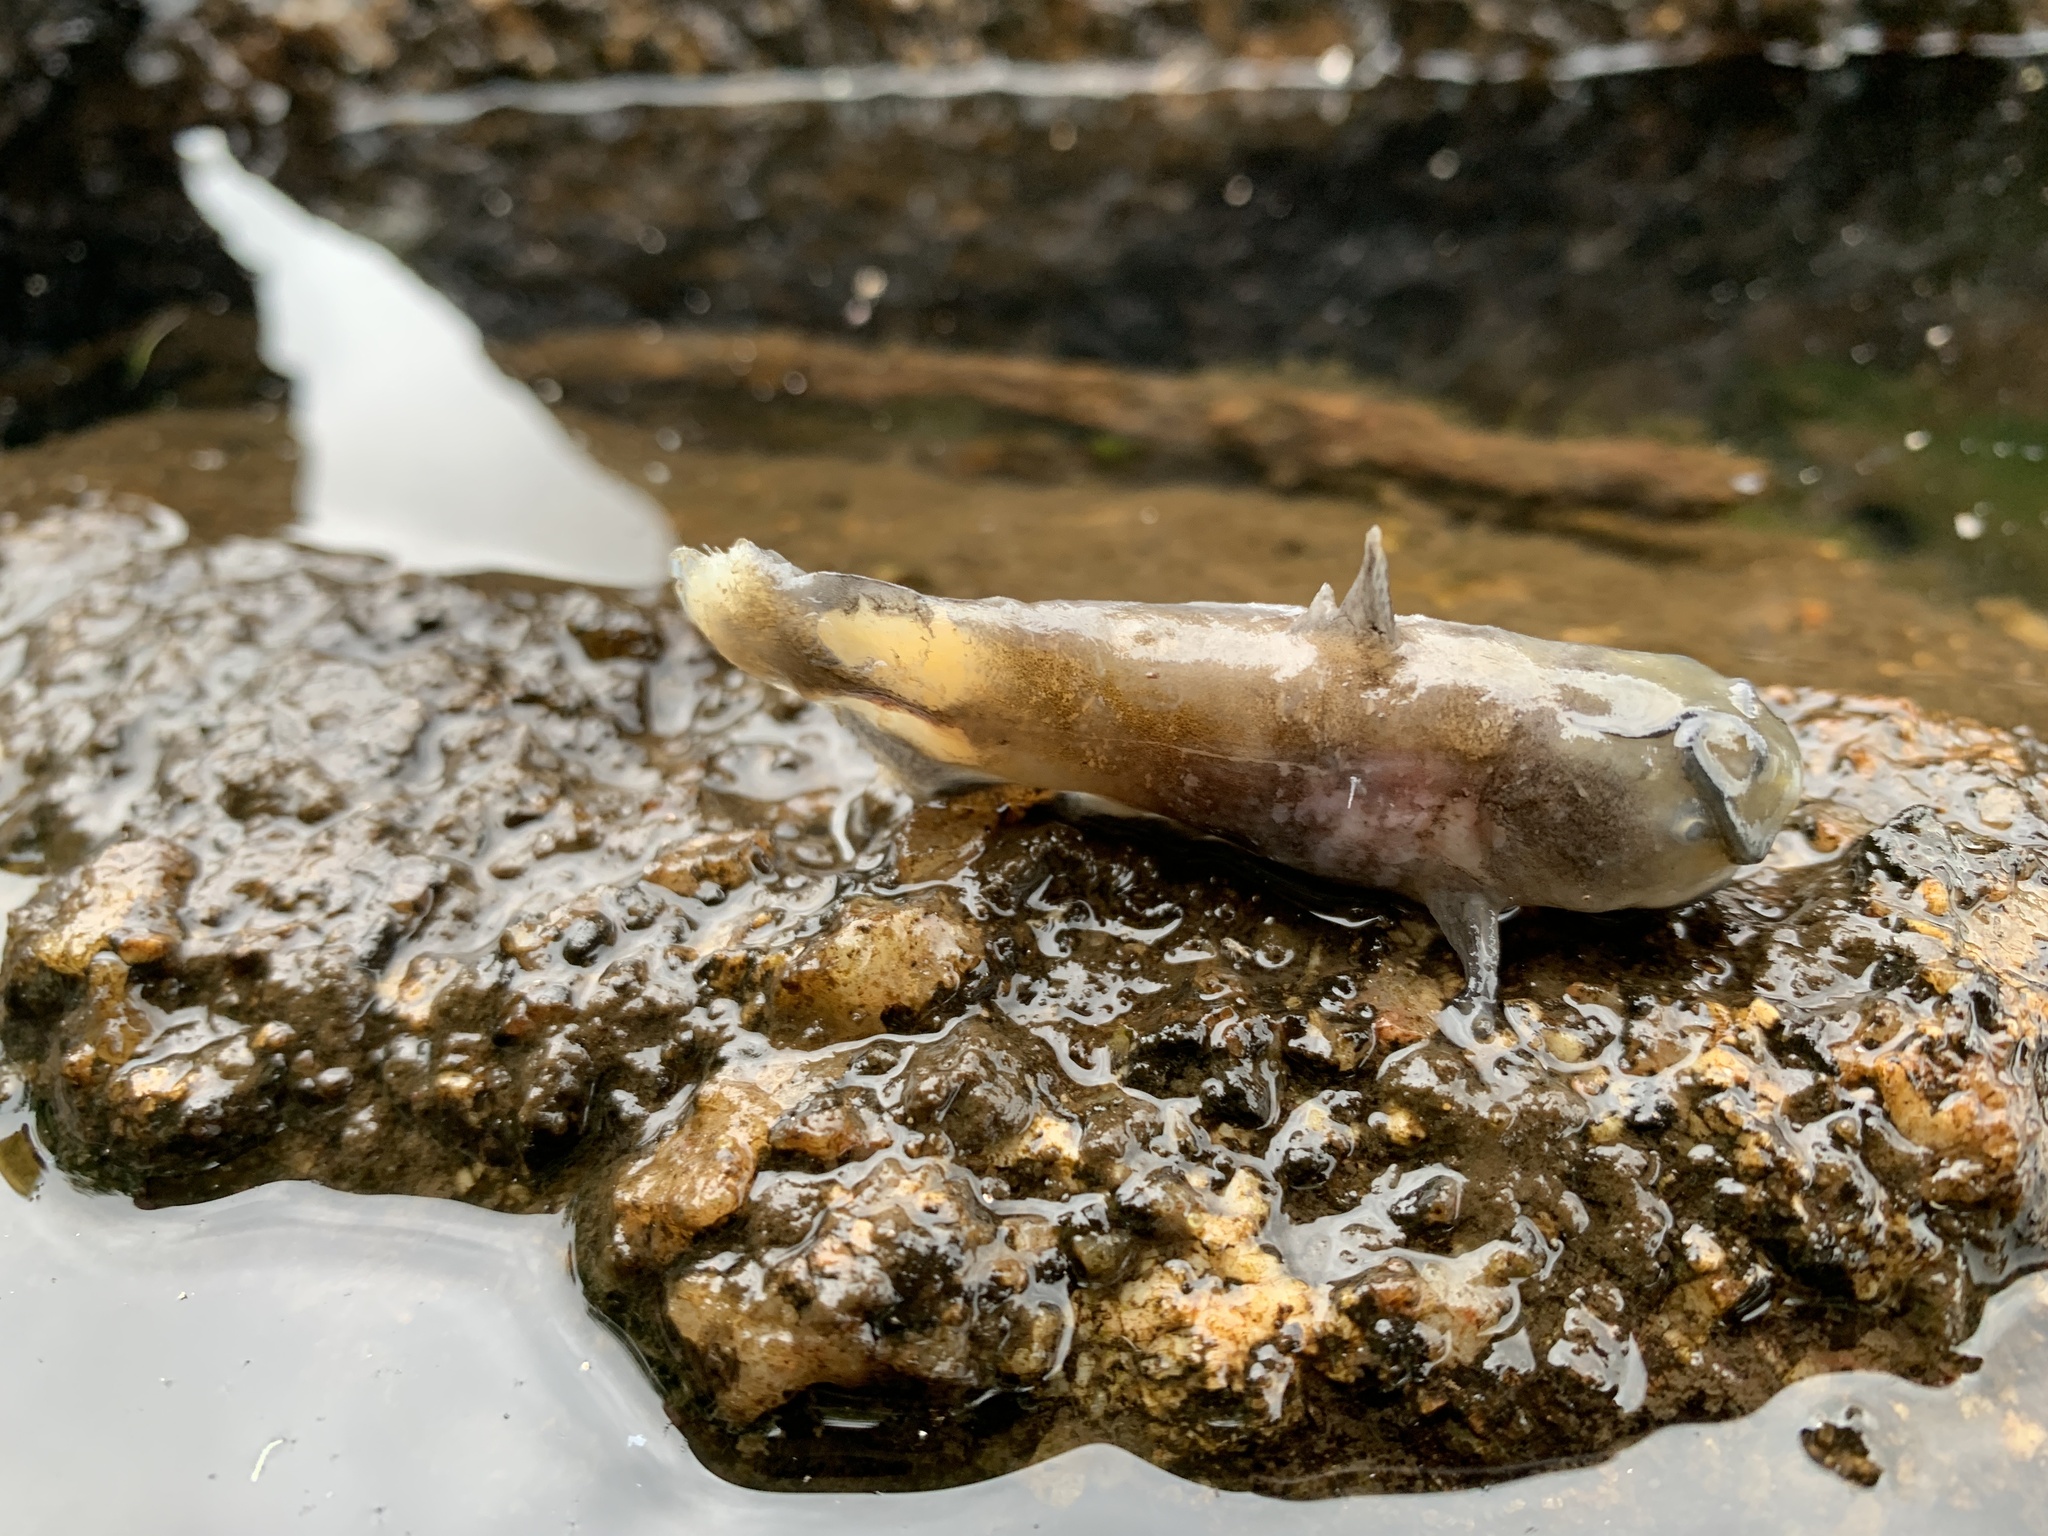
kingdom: Animalia
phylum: Chordata
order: Siluriformes
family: Ictaluridae
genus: Ameiurus
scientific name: Ameiurus nebulosus
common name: Brown bullhead
